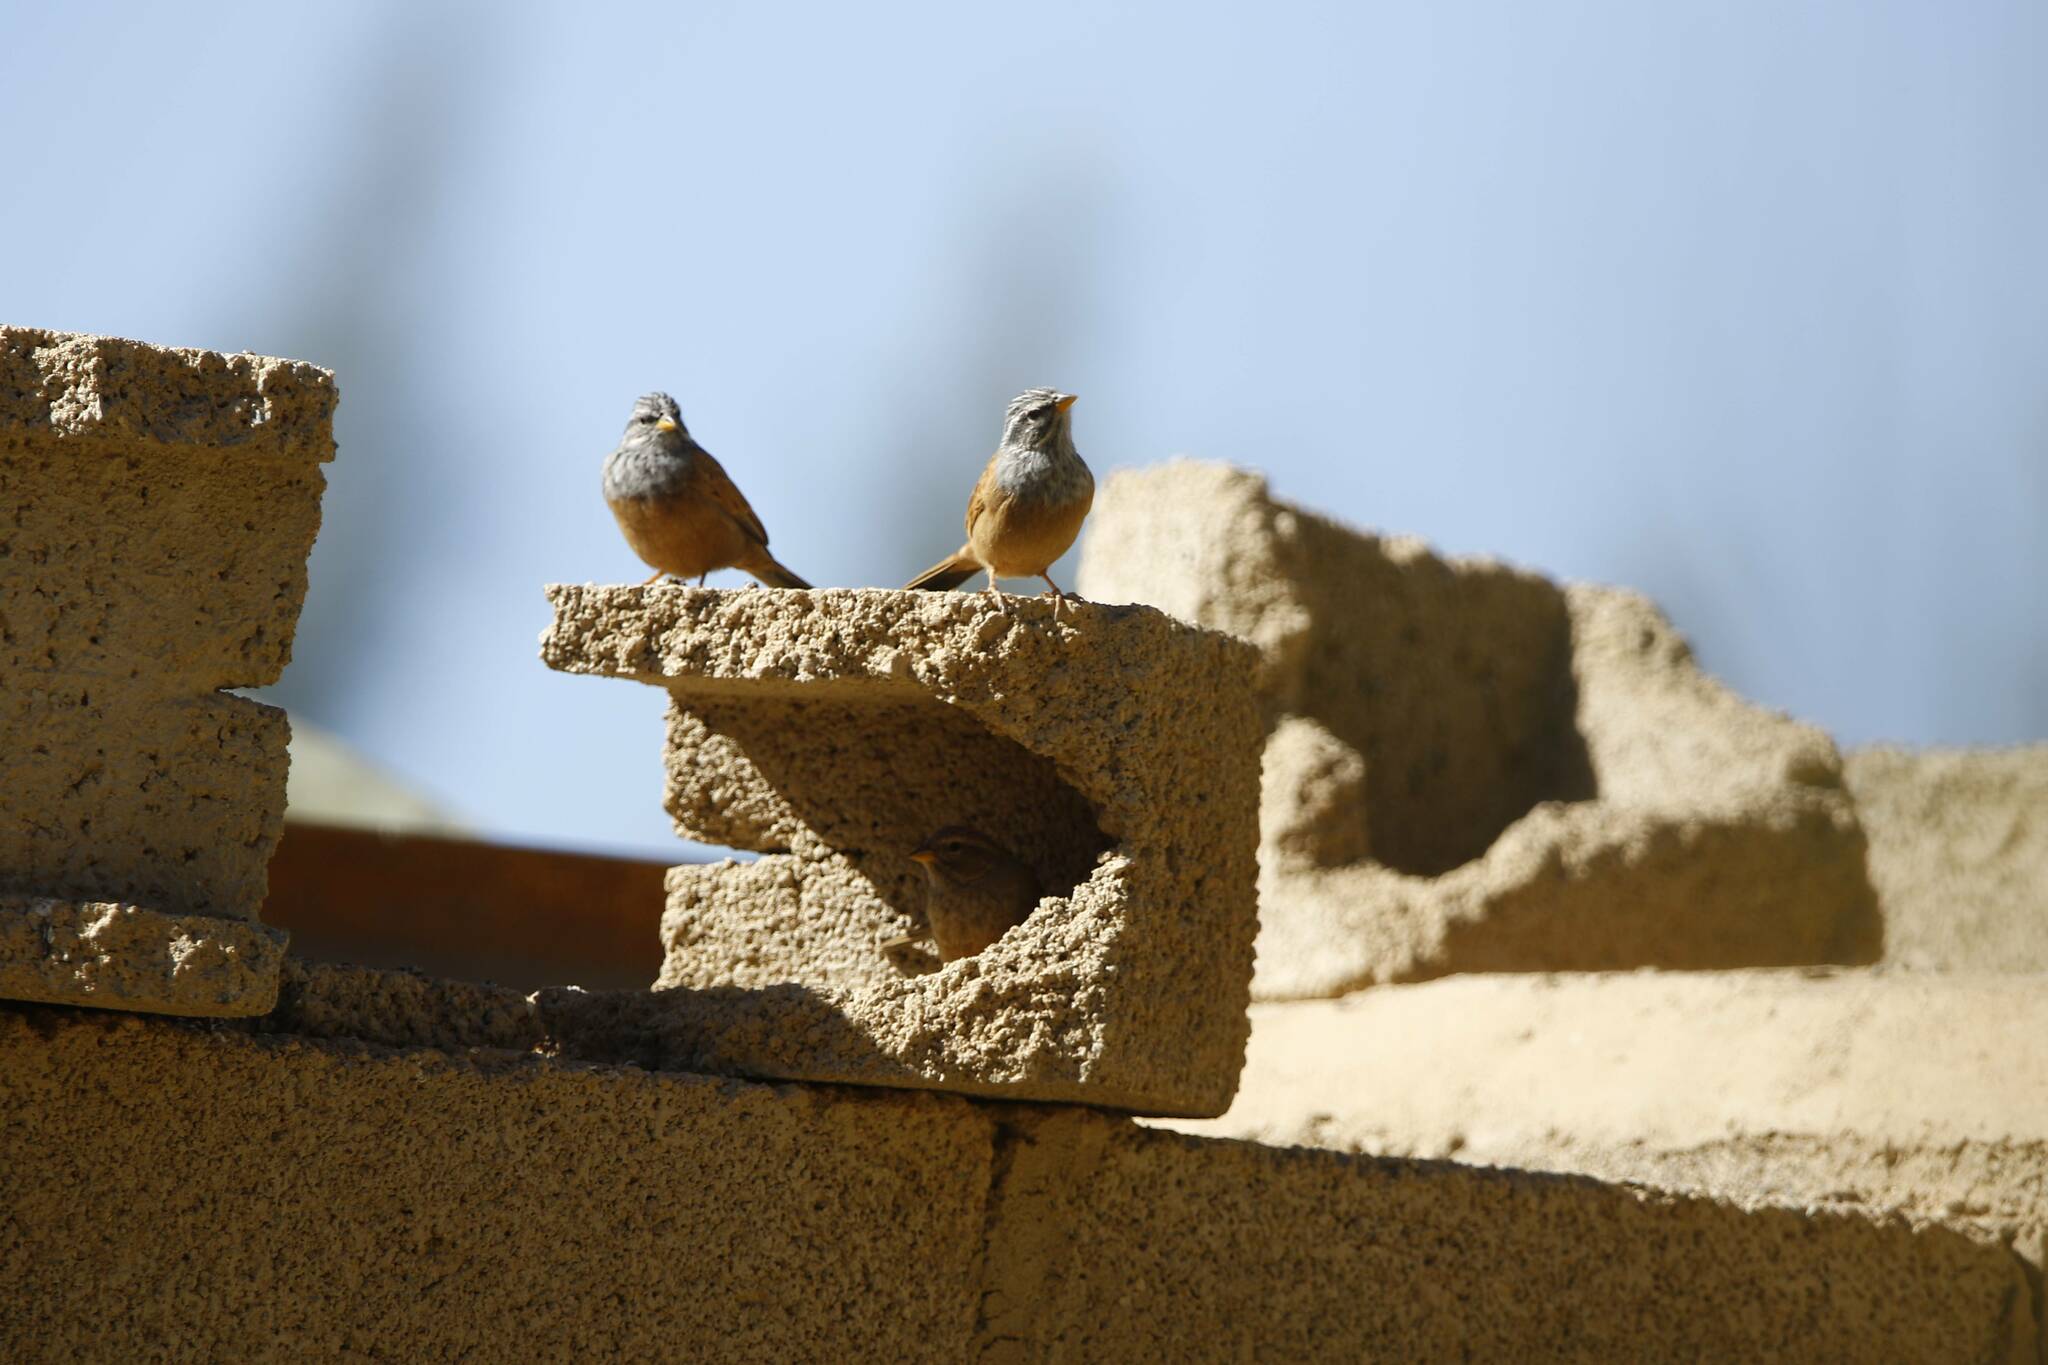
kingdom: Animalia
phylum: Chordata
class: Aves
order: Passeriformes
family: Emberizidae
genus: Emberiza
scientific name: Emberiza sahari
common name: House bunting
